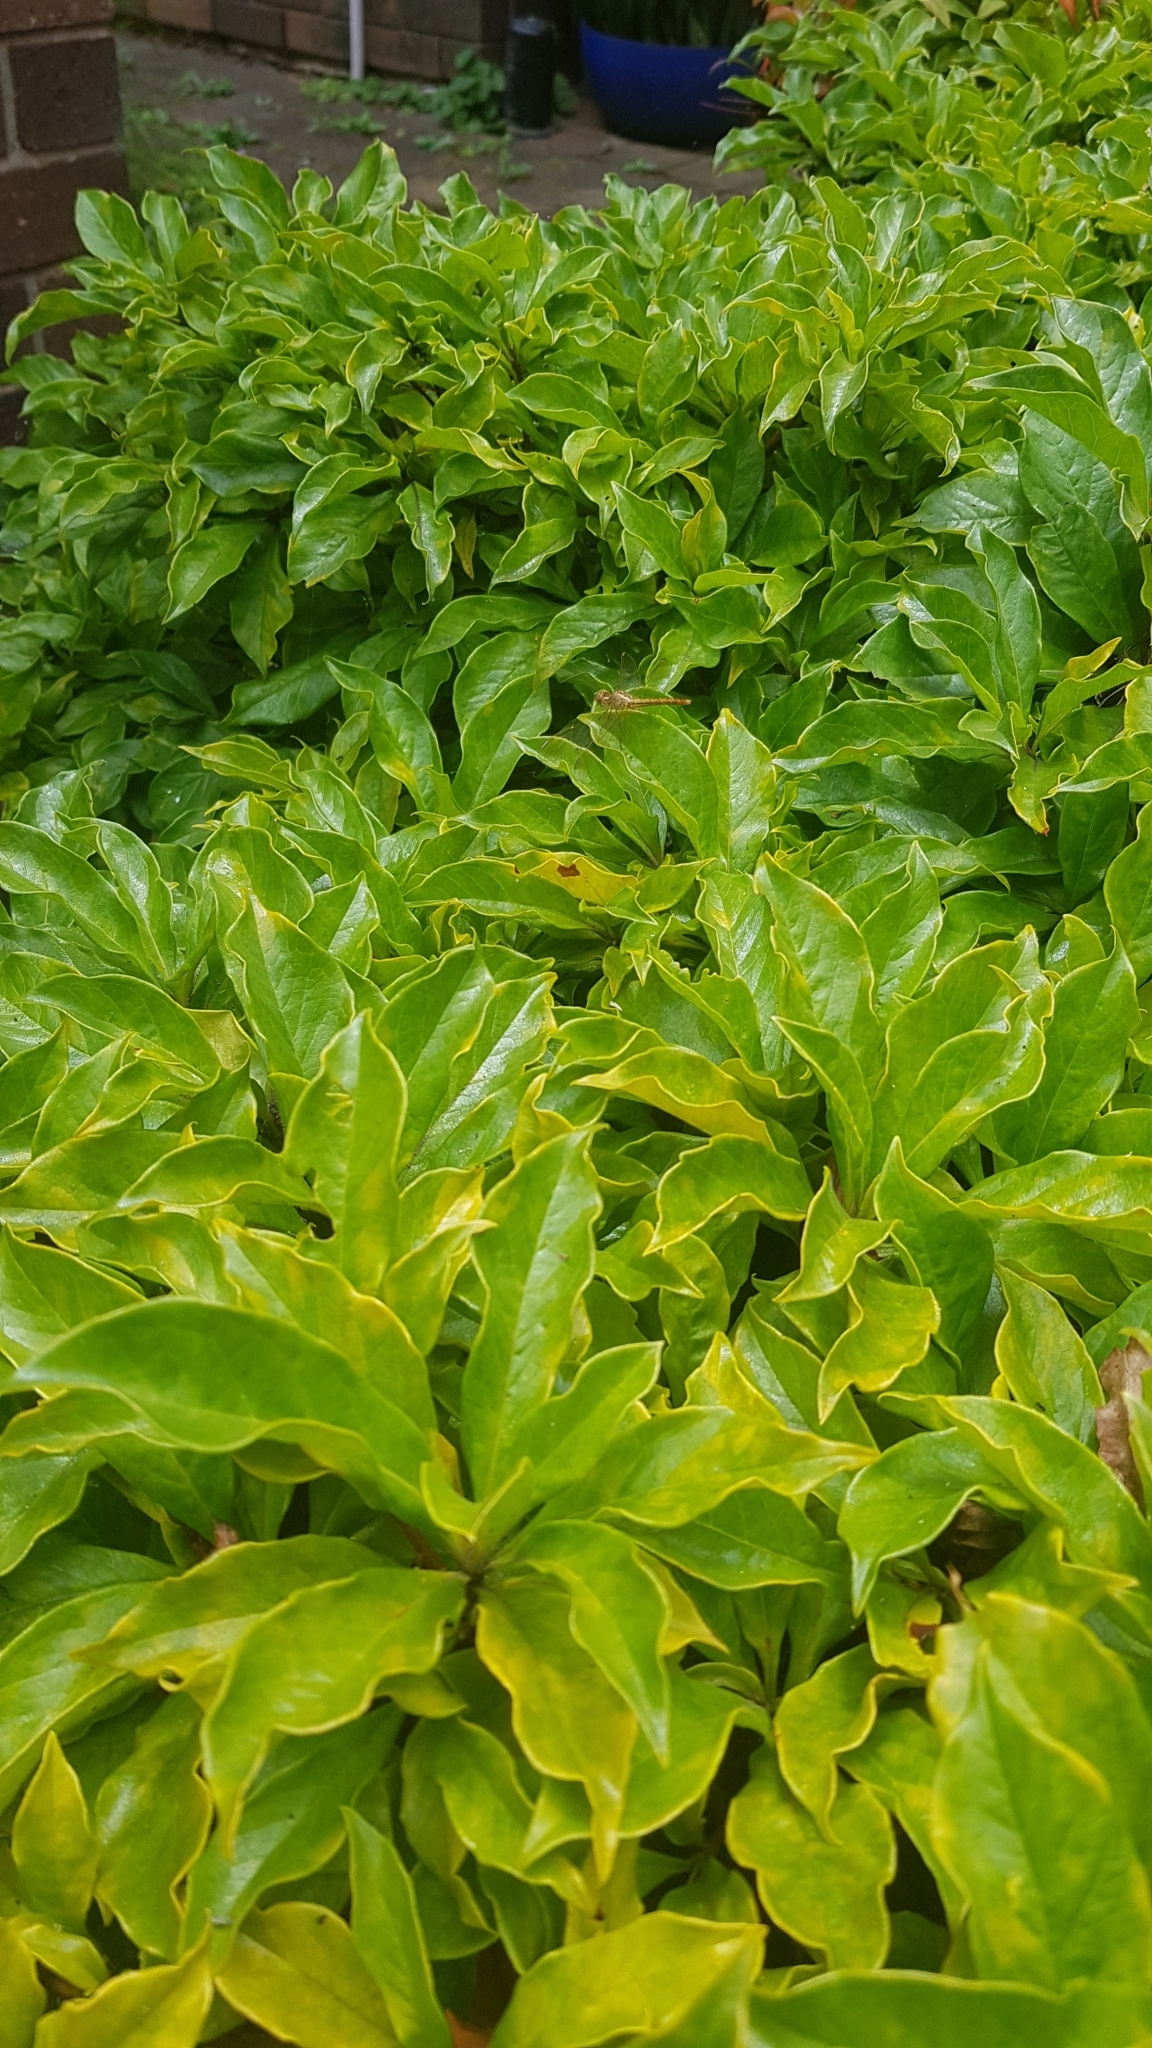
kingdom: Animalia
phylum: Arthropoda
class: Insecta
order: Odonata
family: Libellulidae
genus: Diplacodes
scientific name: Diplacodes haematodes
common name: Scarlet percher
